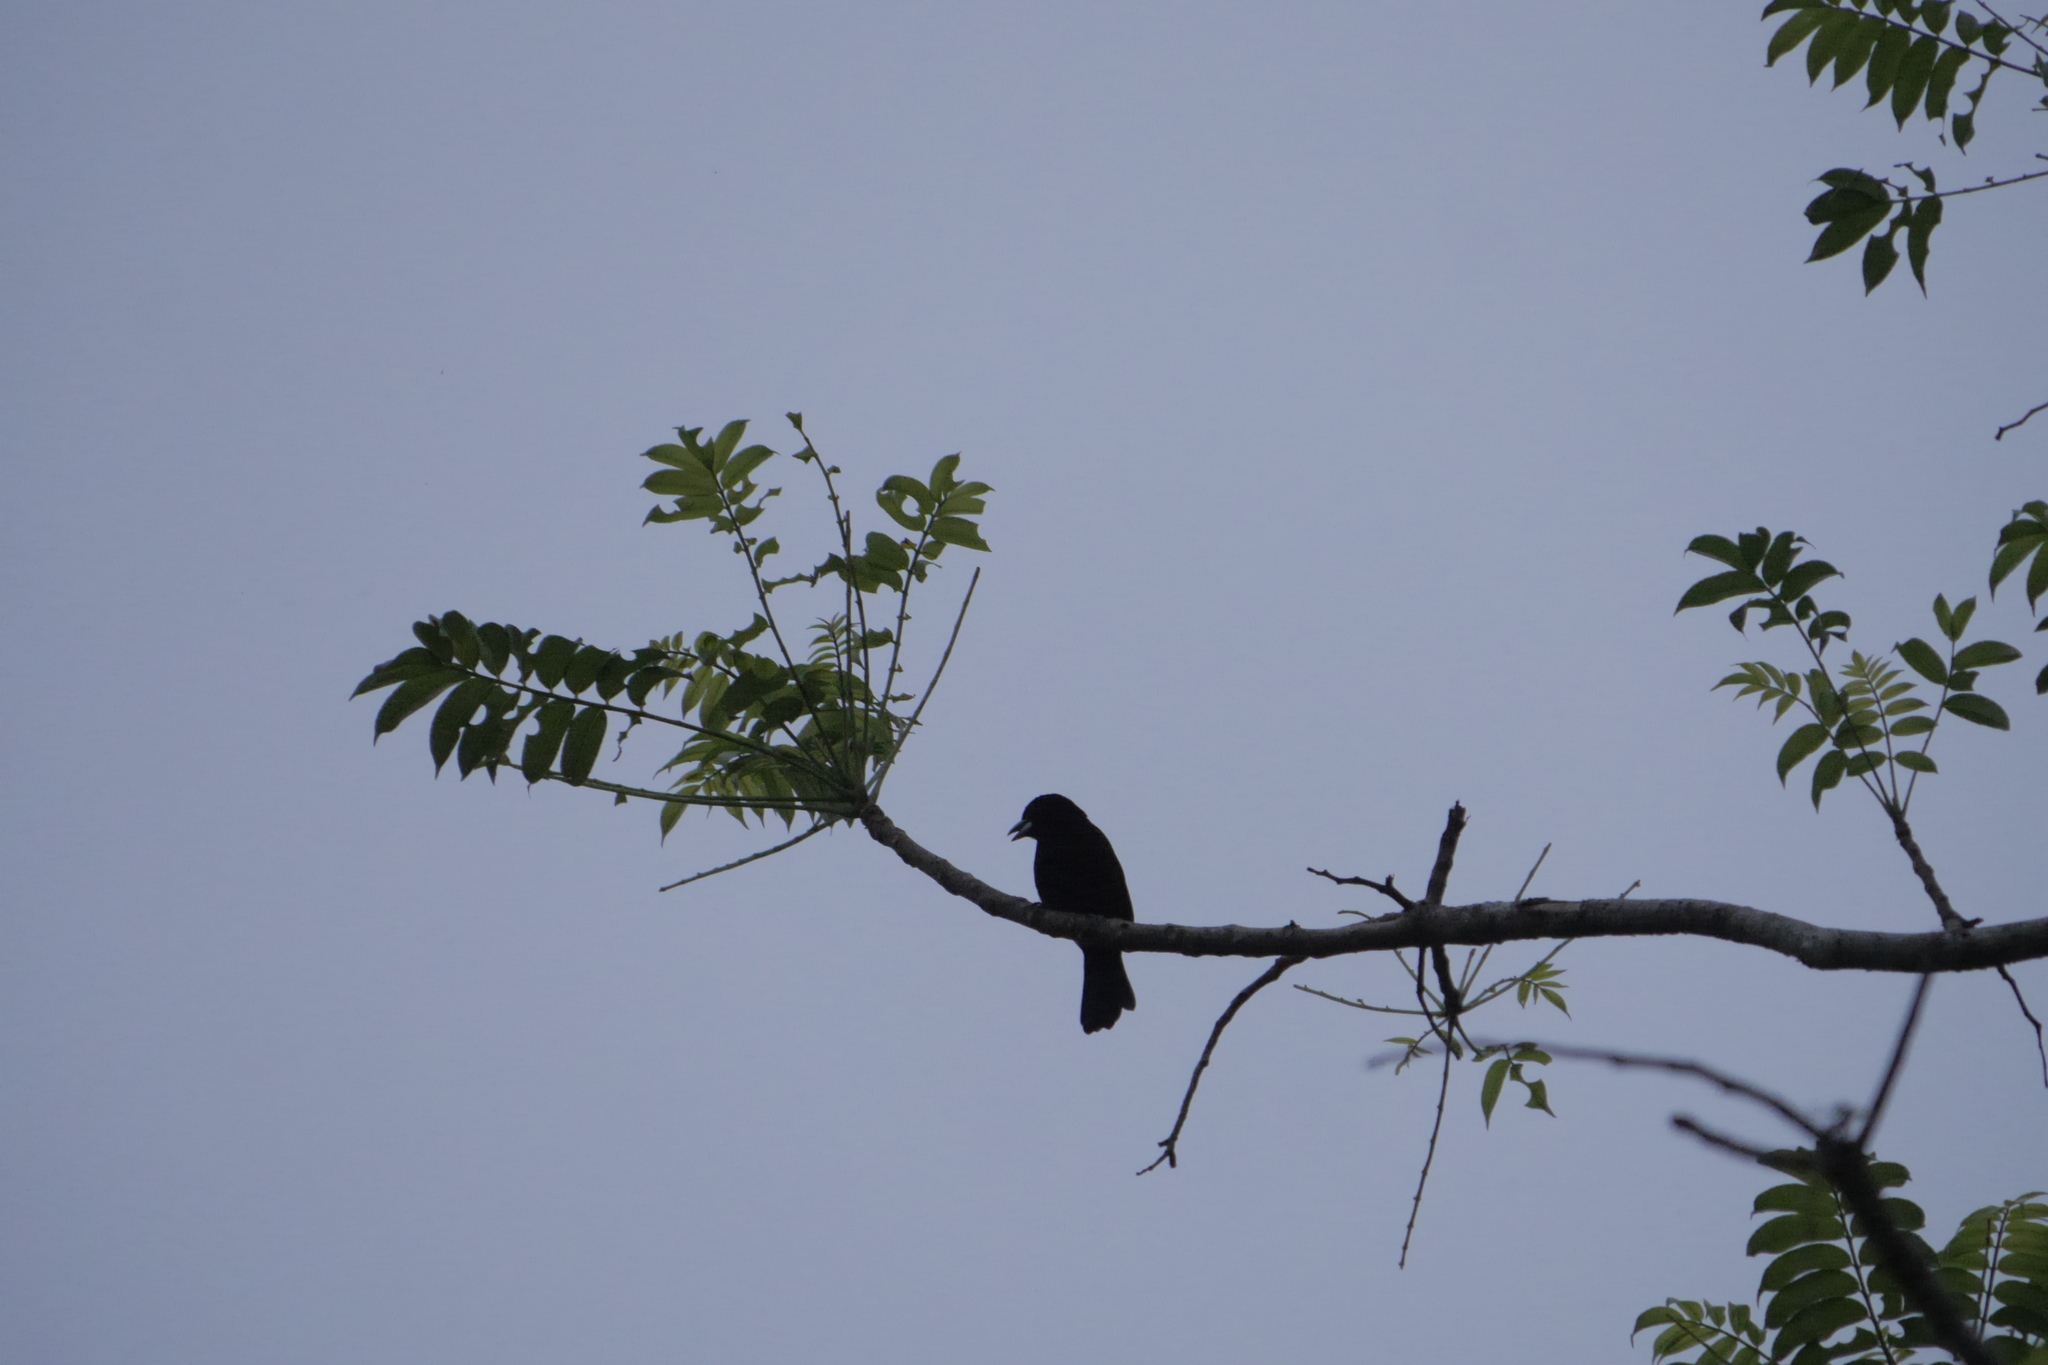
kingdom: Animalia
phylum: Chordata
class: Aves
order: Passeriformes
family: Thraupidae
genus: Ramphocelus
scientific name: Ramphocelus flammigerus
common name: Flame-rumped tanager
